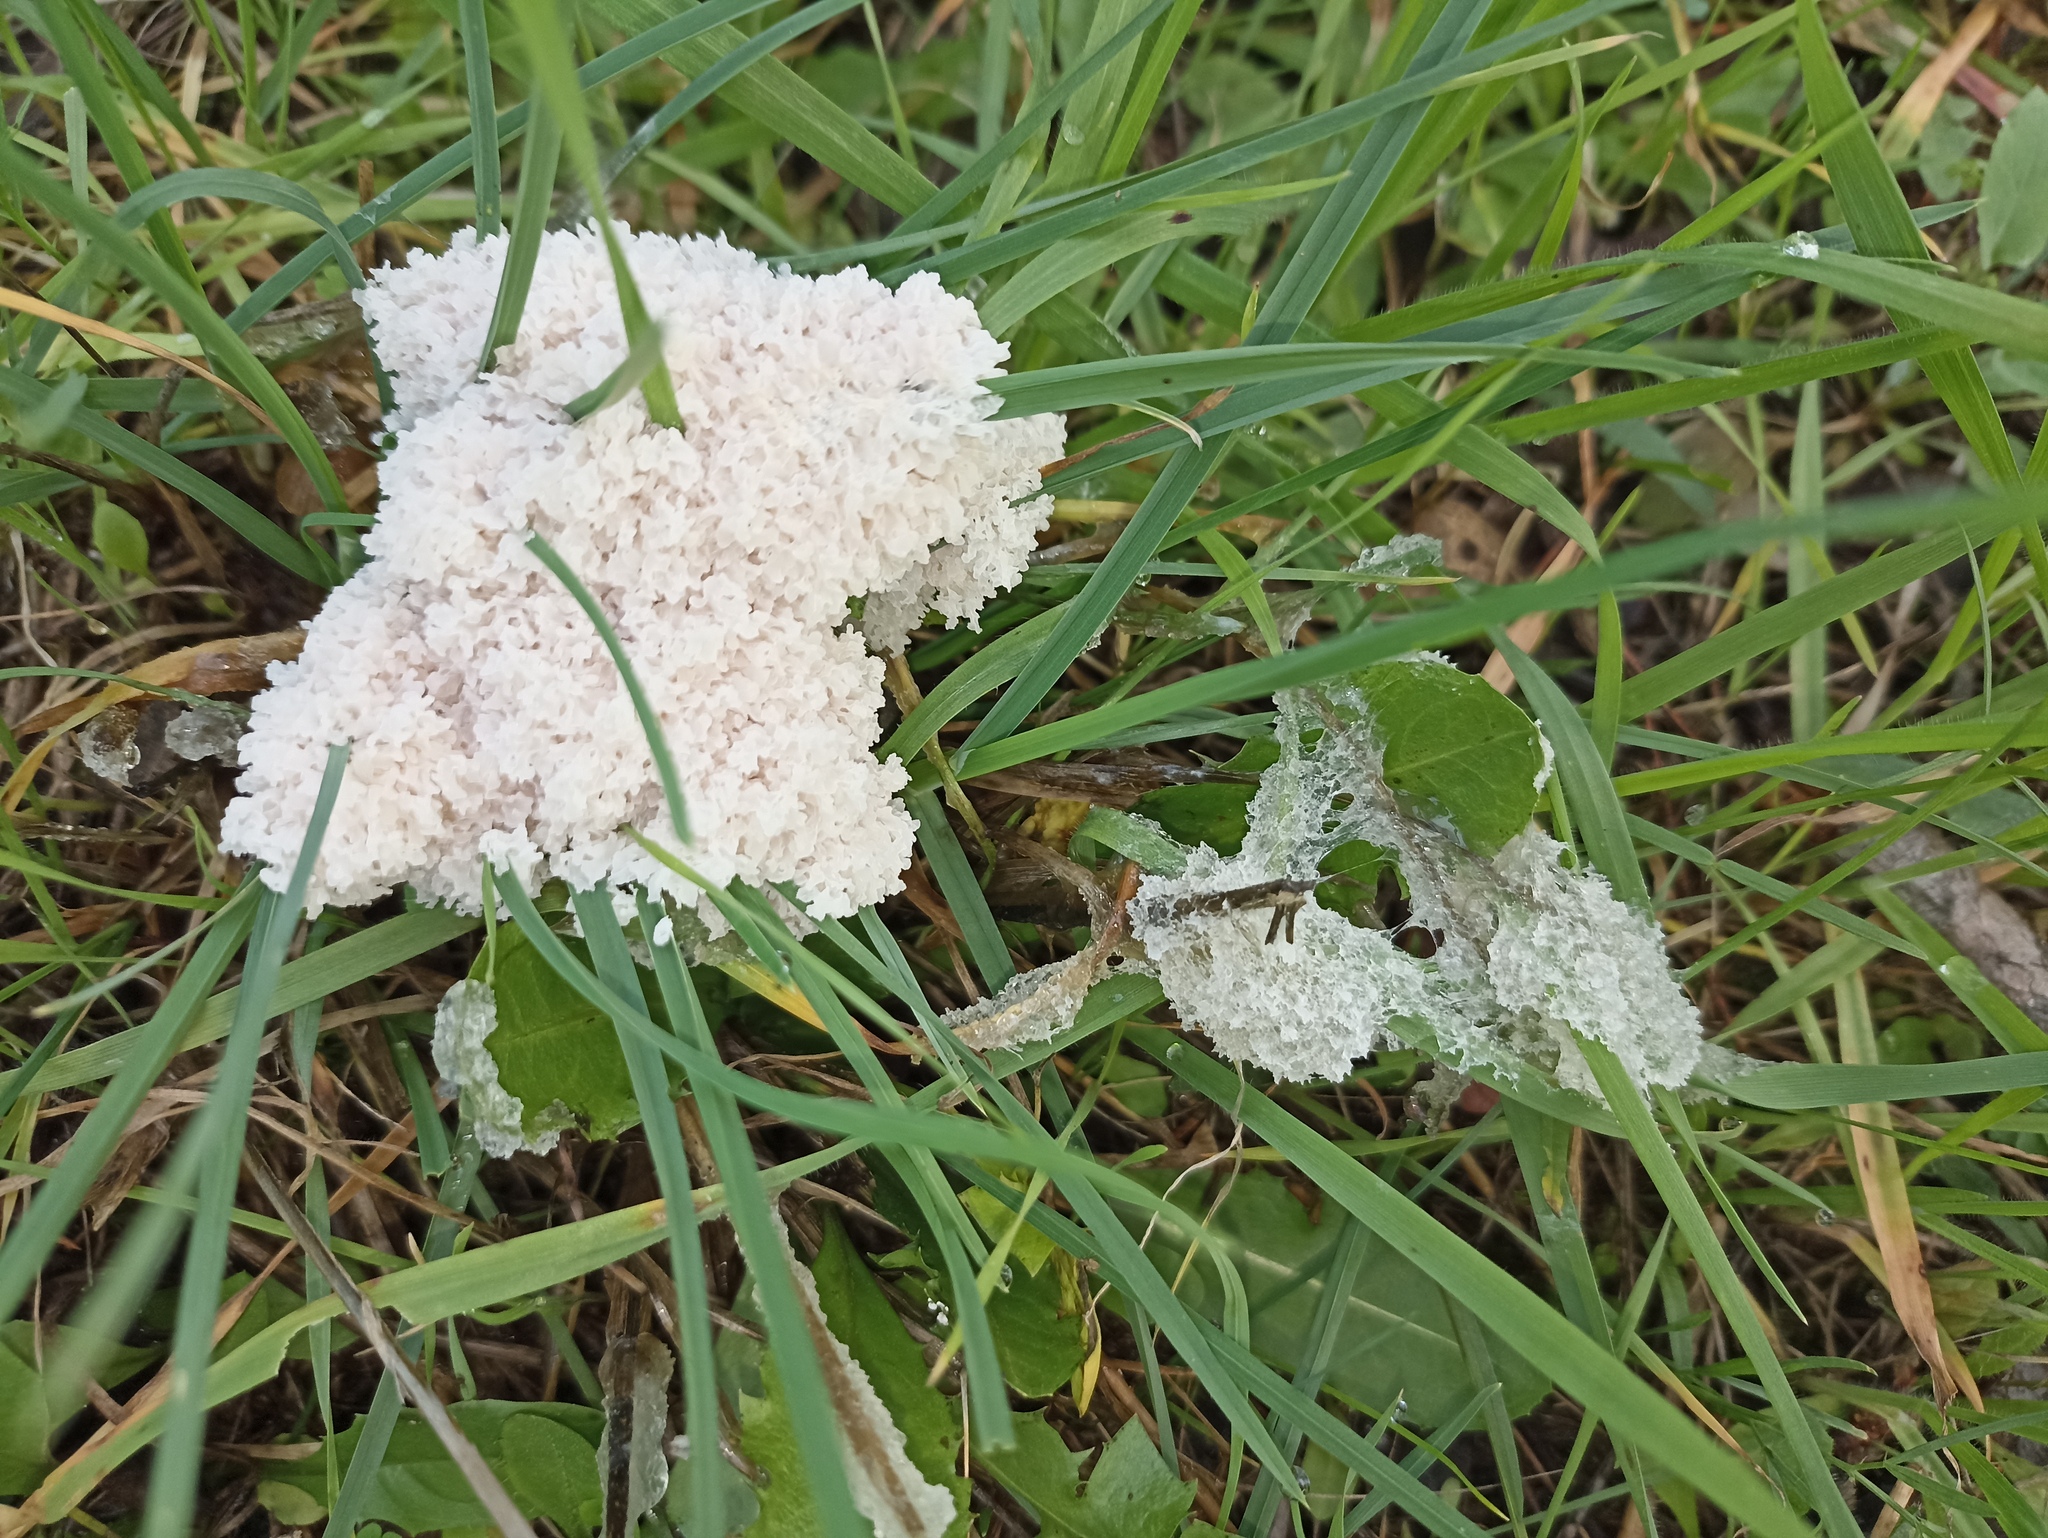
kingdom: Protozoa
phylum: Mycetozoa
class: Myxomycetes
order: Physarales
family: Physaraceae
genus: Didymium
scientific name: Didymium
